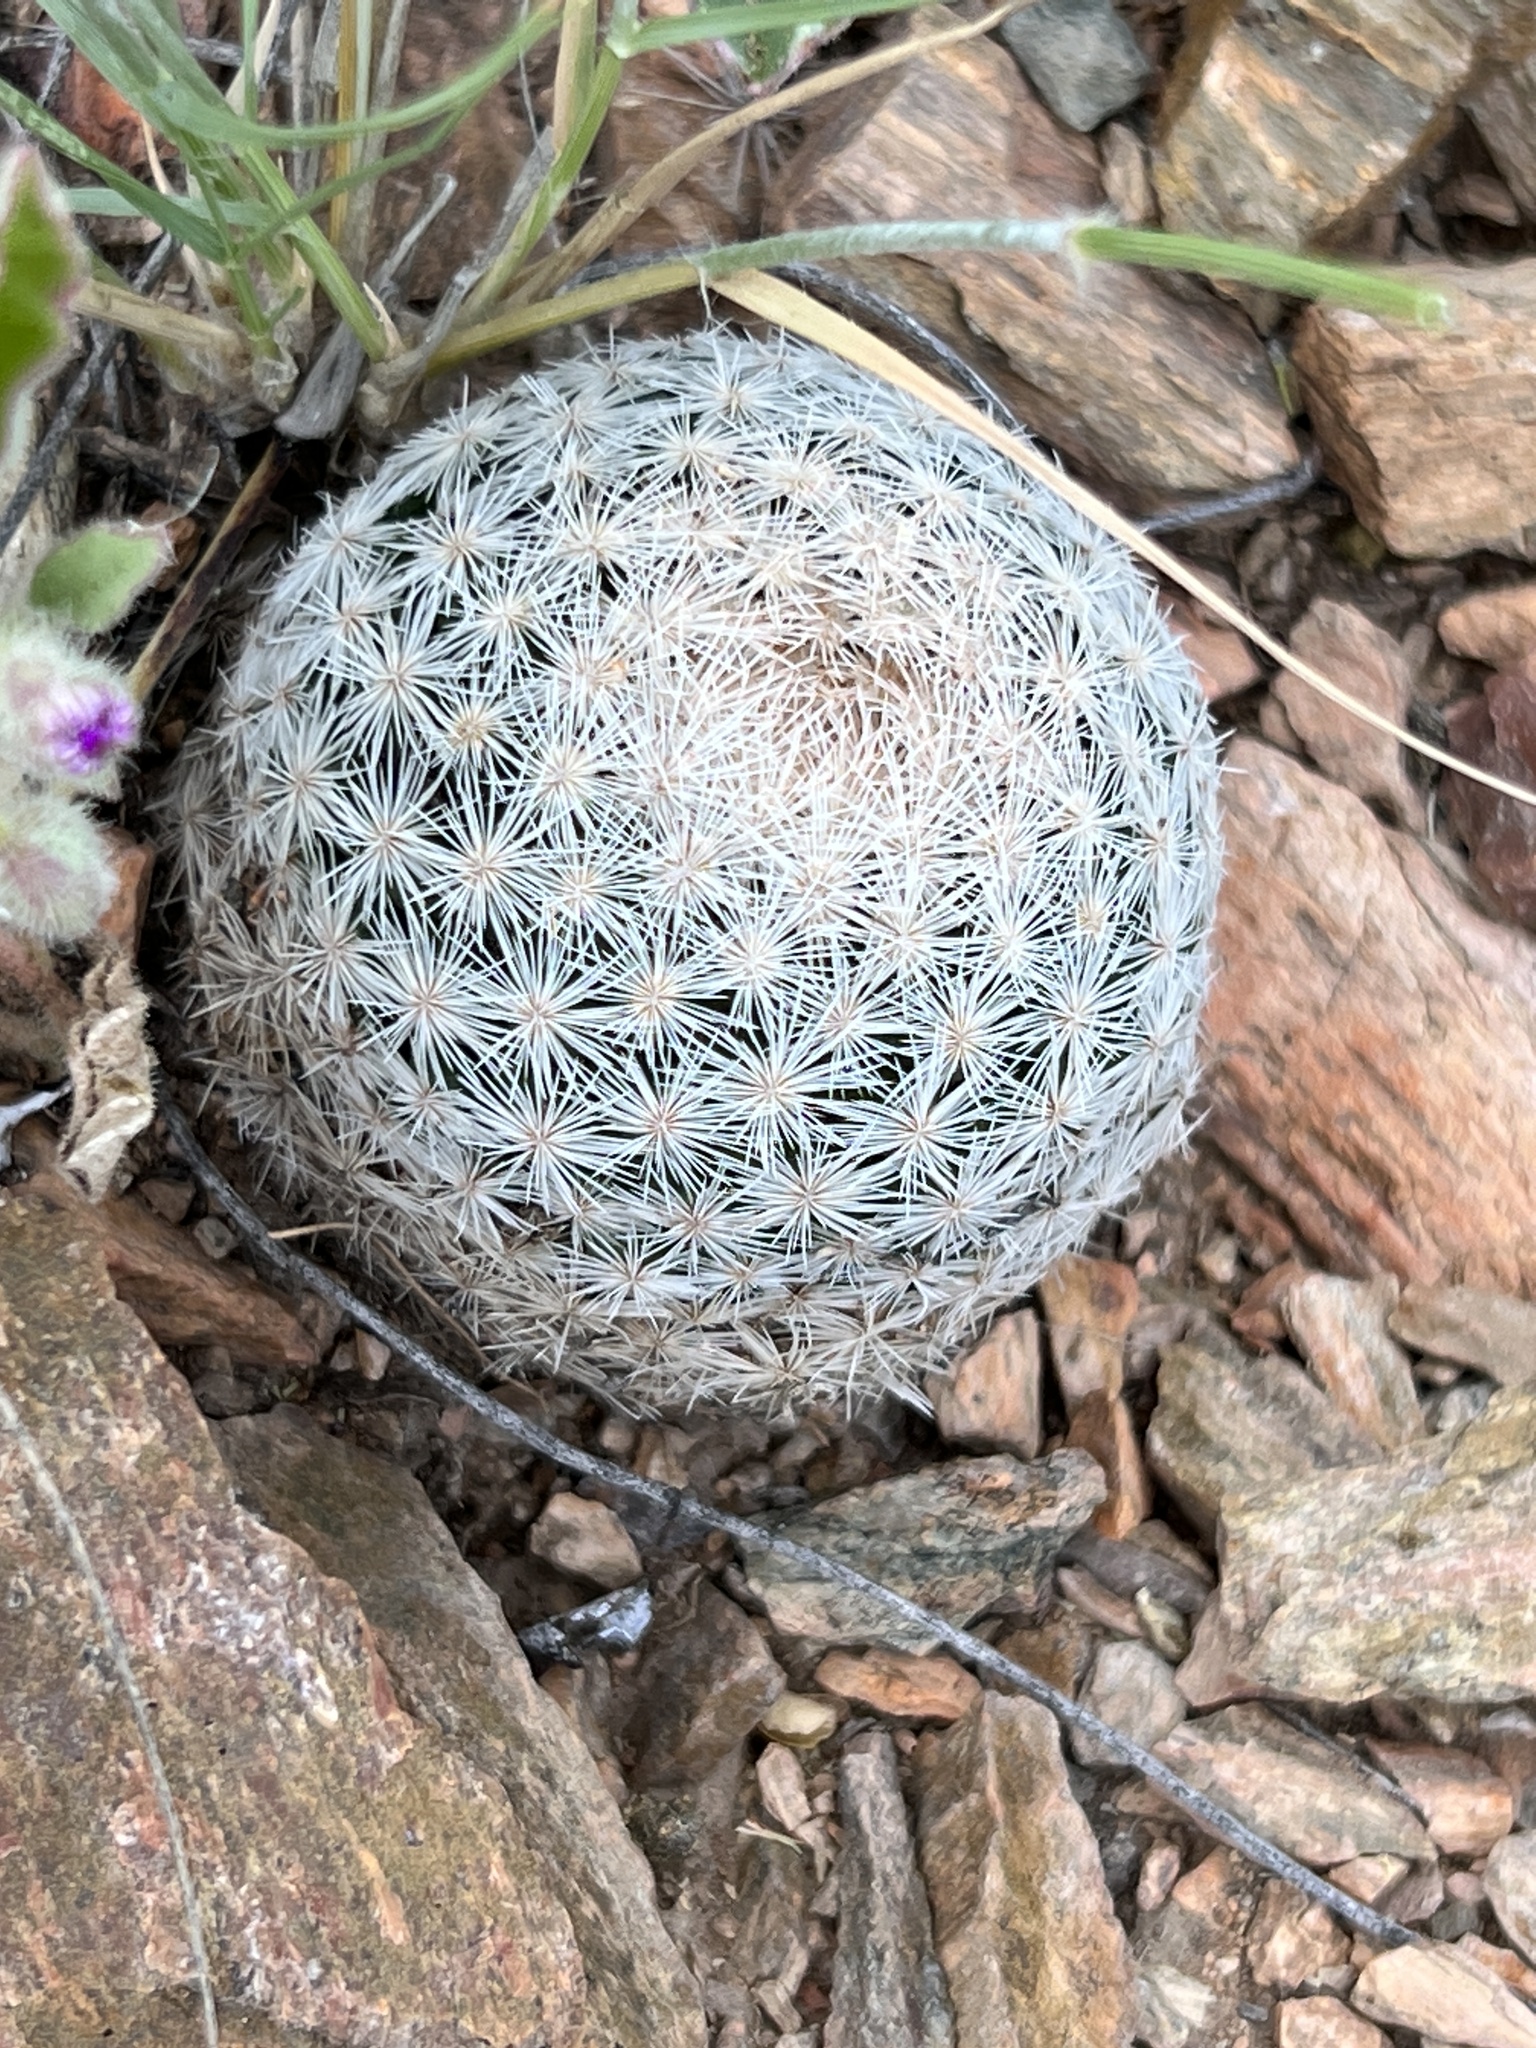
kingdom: Plantae
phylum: Tracheophyta
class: Magnoliopsida
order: Caryophyllales
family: Cactaceae
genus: Mammillaria
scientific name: Mammillaria lasiacantha
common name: Lace-spine nipple cactus
